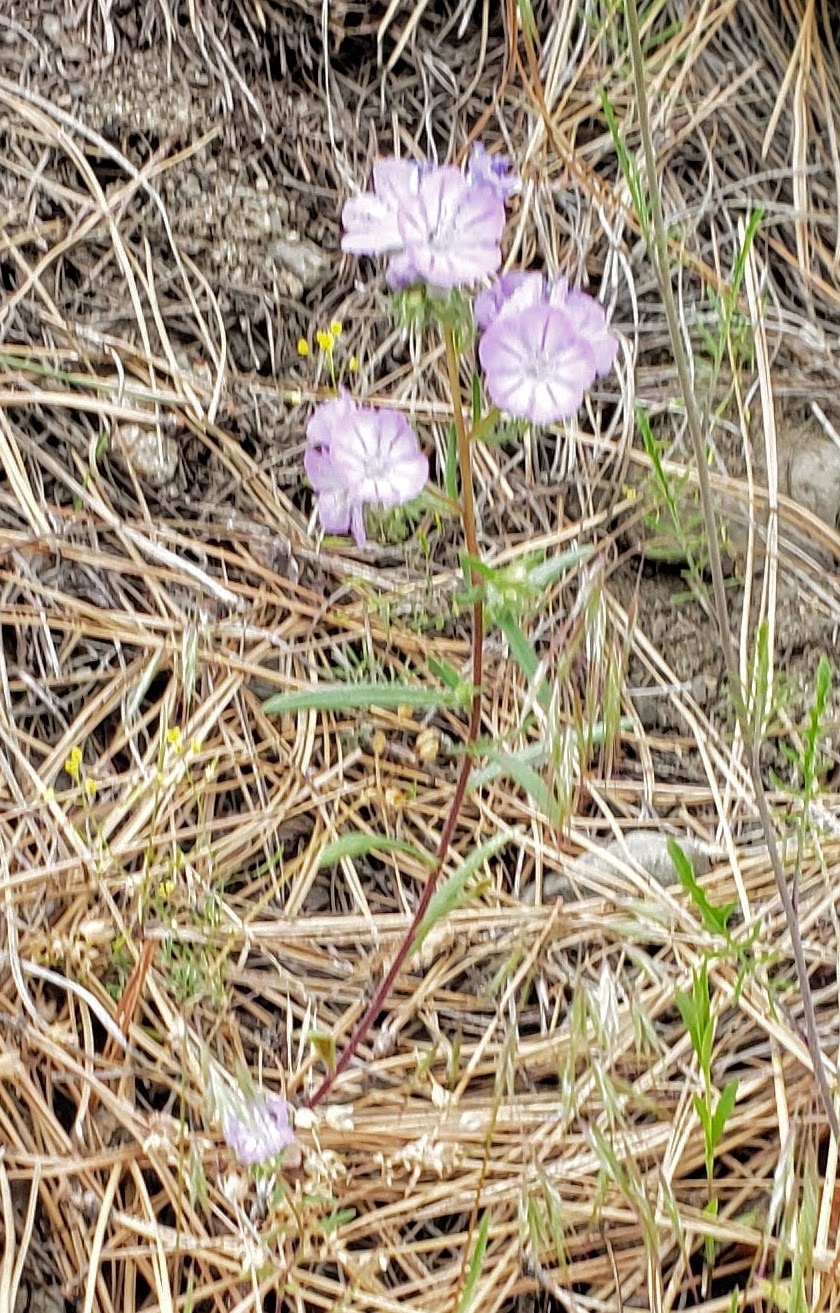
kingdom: Plantae
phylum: Tracheophyta
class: Magnoliopsida
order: Boraginales
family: Hydrophyllaceae
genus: Phacelia
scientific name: Phacelia linearis
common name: Linear-leaved phacelia
